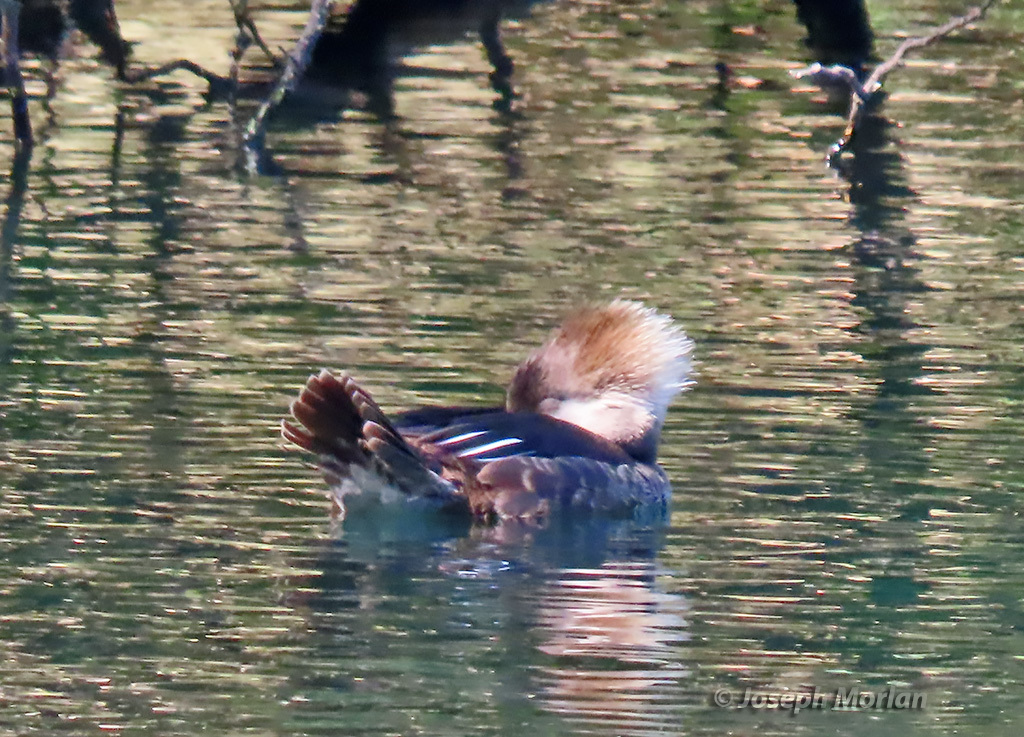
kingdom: Animalia
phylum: Chordata
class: Aves
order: Anseriformes
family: Anatidae
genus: Lophodytes
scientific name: Lophodytes cucullatus
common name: Hooded merganser
